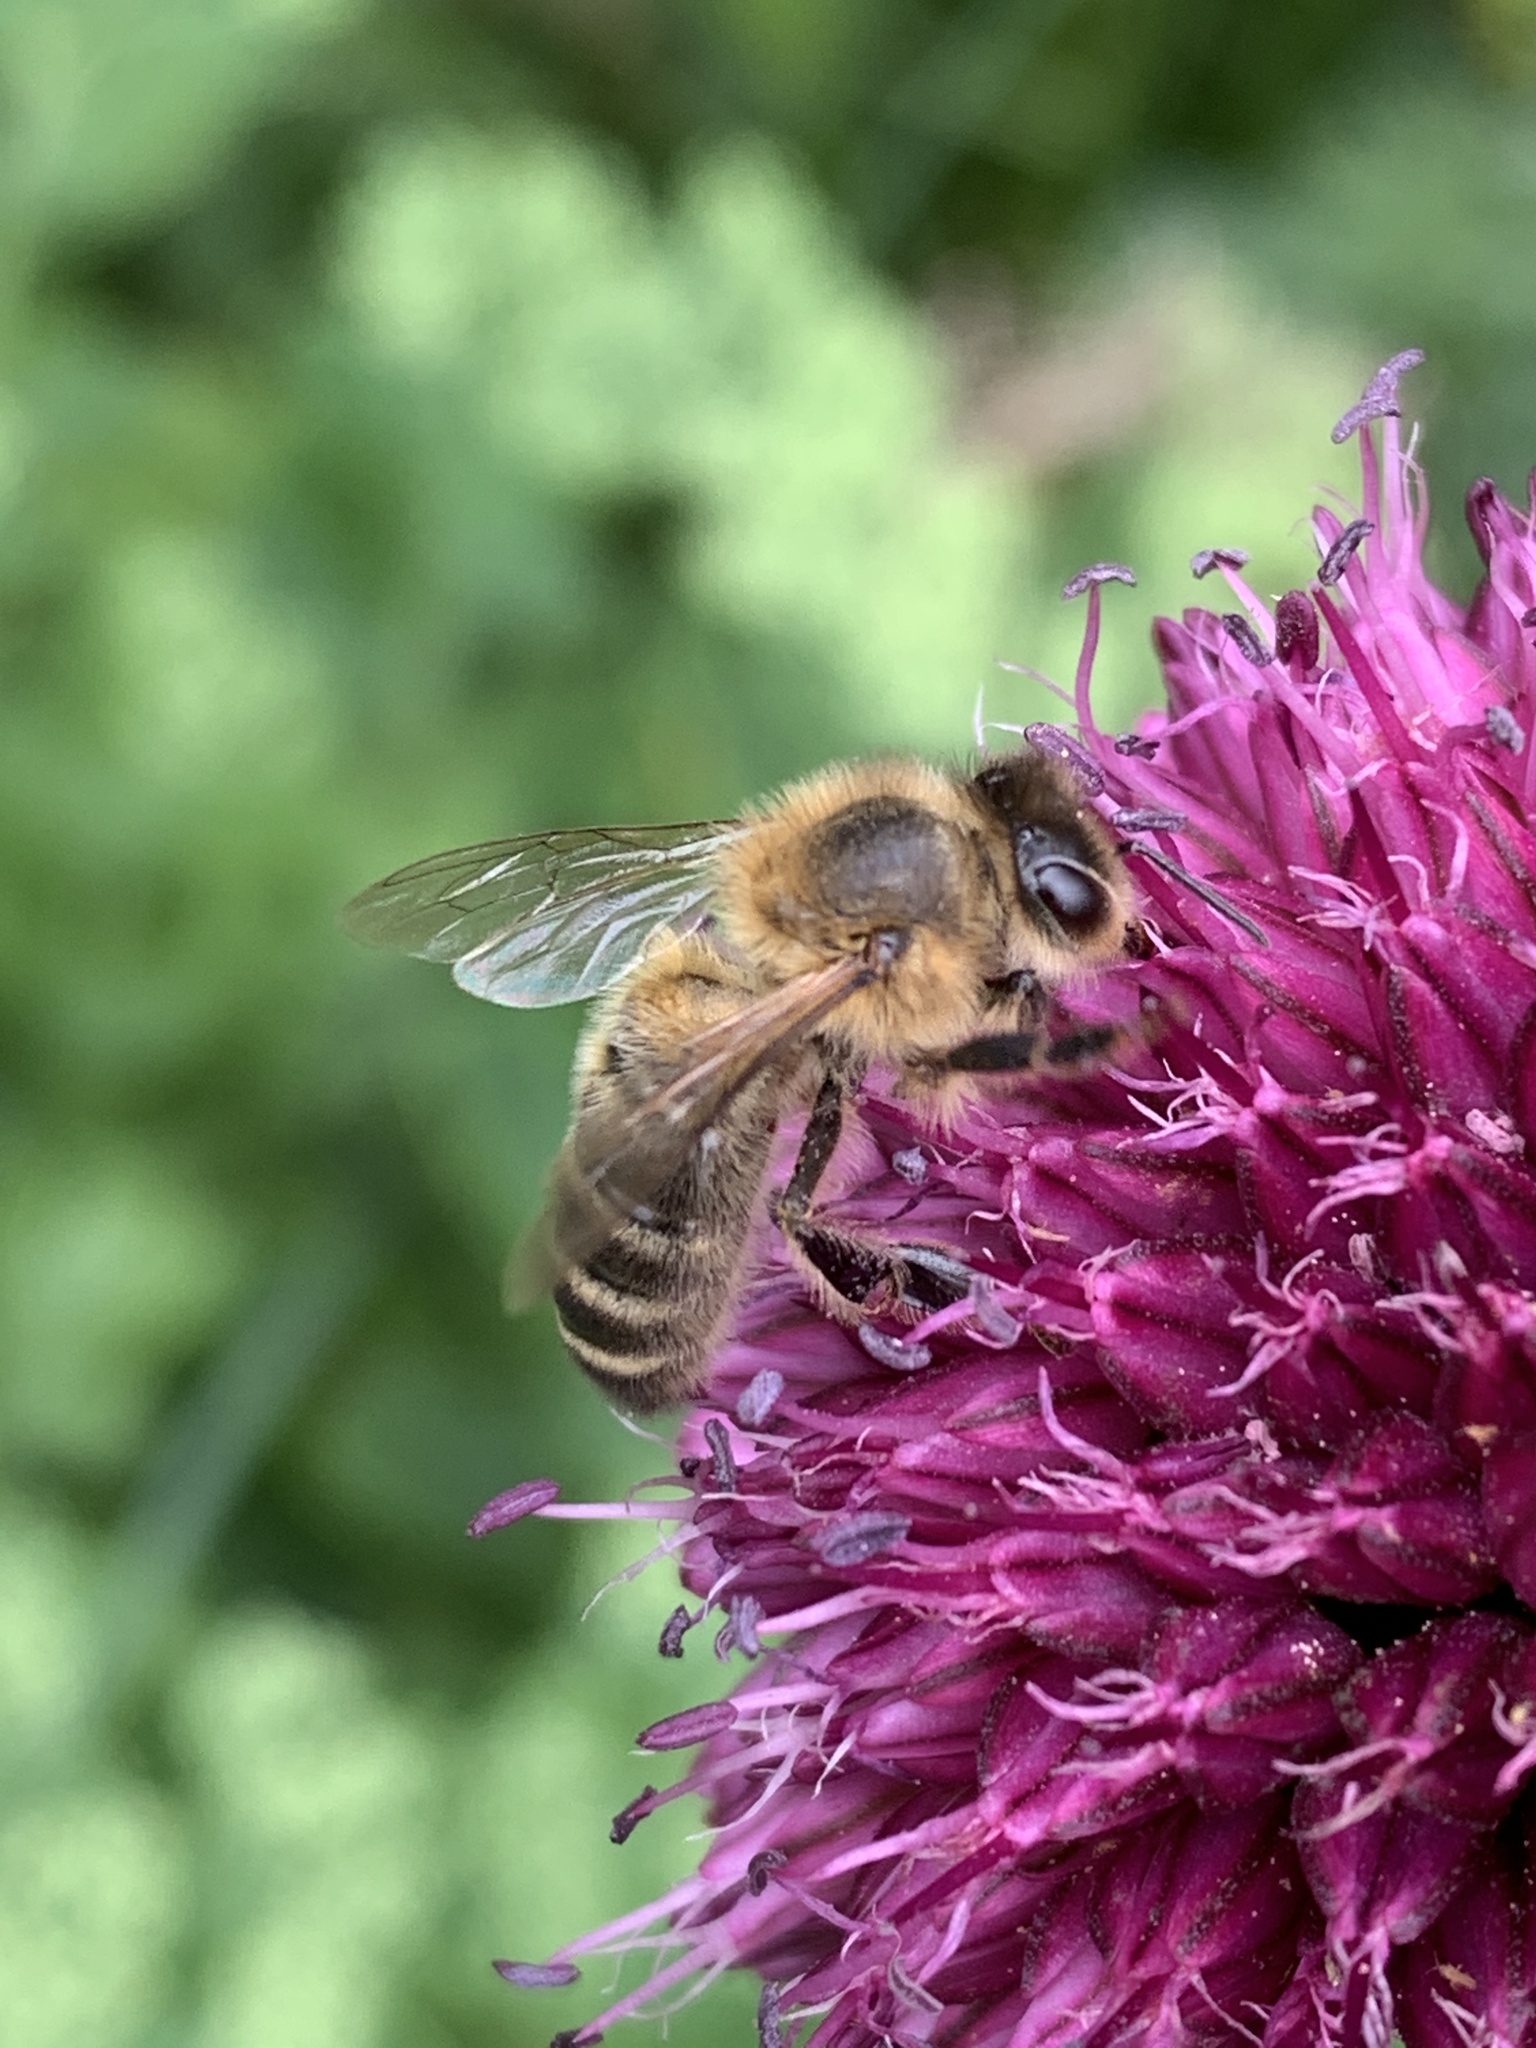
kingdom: Animalia
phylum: Arthropoda
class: Insecta
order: Hymenoptera
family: Apidae
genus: Apis
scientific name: Apis mellifera
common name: Honey bee
